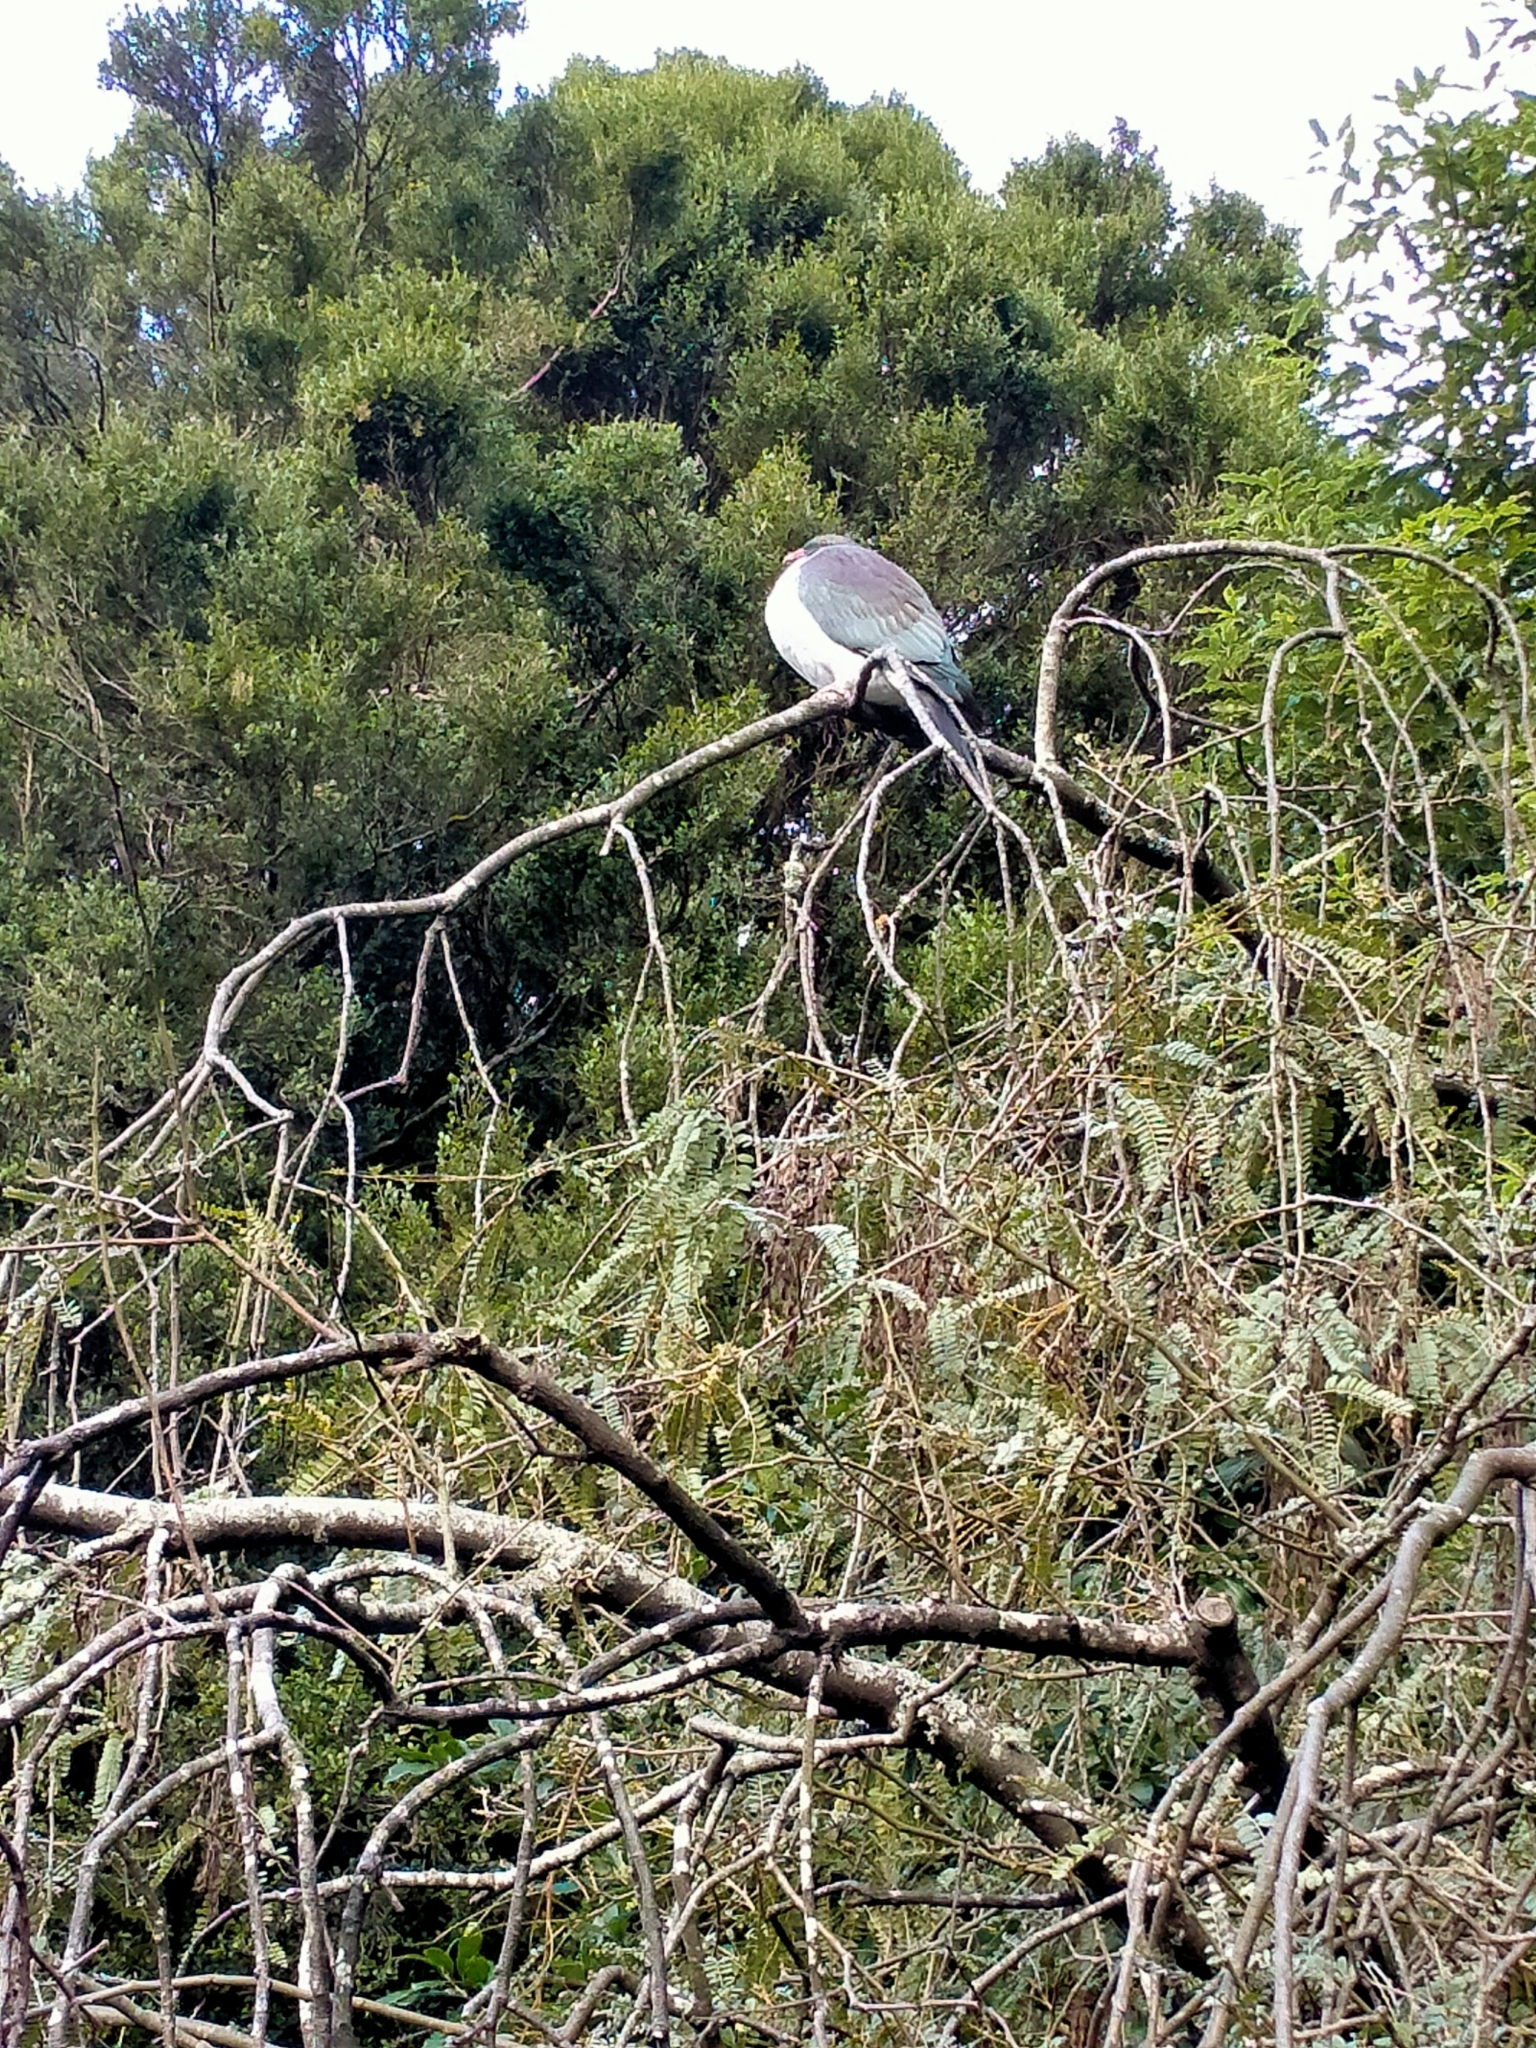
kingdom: Animalia
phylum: Chordata
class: Aves
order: Columbiformes
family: Columbidae
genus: Hemiphaga
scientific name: Hemiphaga novaeseelandiae
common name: New zealand pigeon
